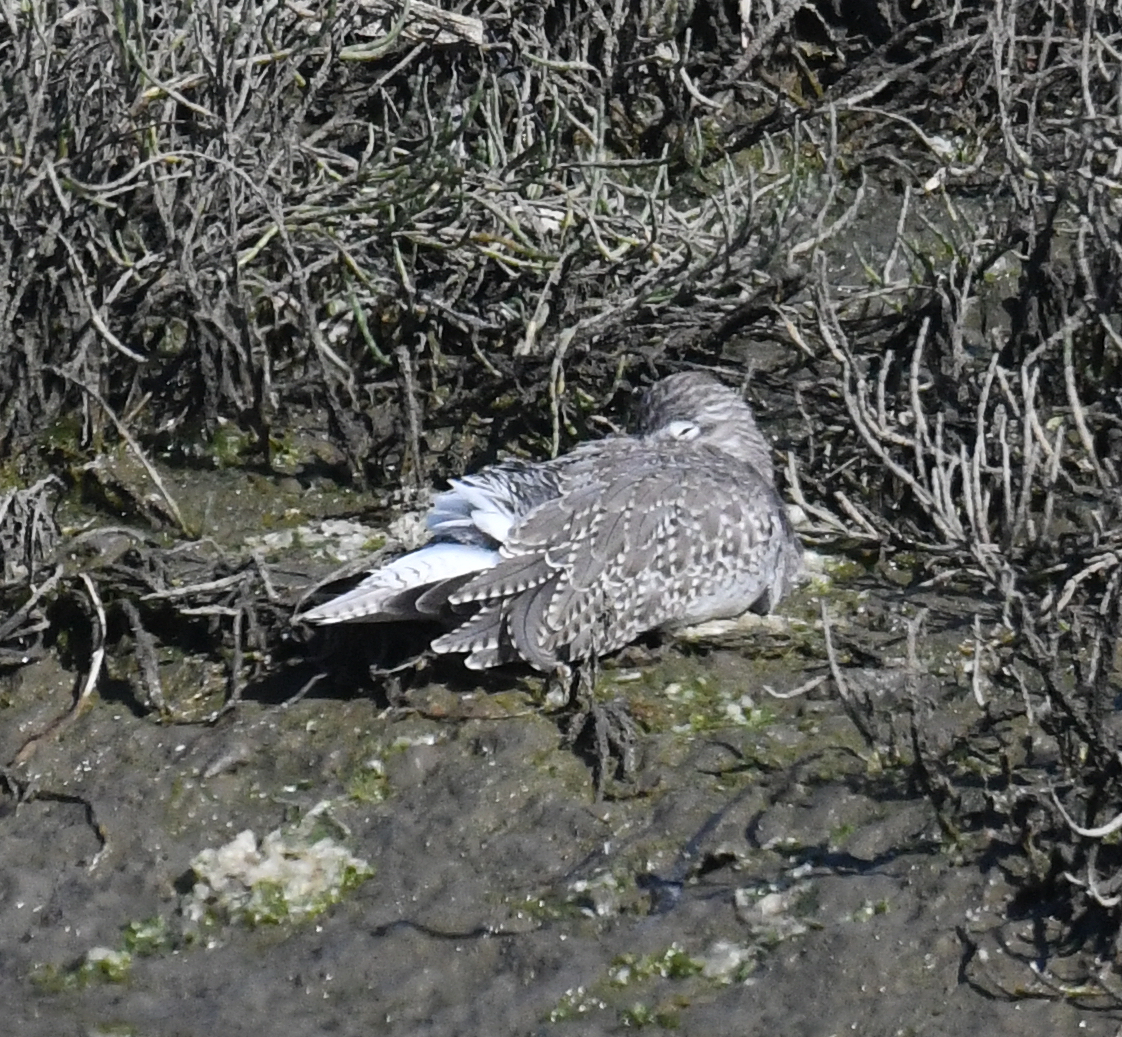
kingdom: Animalia
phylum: Chordata
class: Aves
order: Charadriiformes
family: Scolopacidae
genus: Tringa
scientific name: Tringa melanoleuca
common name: Greater yellowlegs
